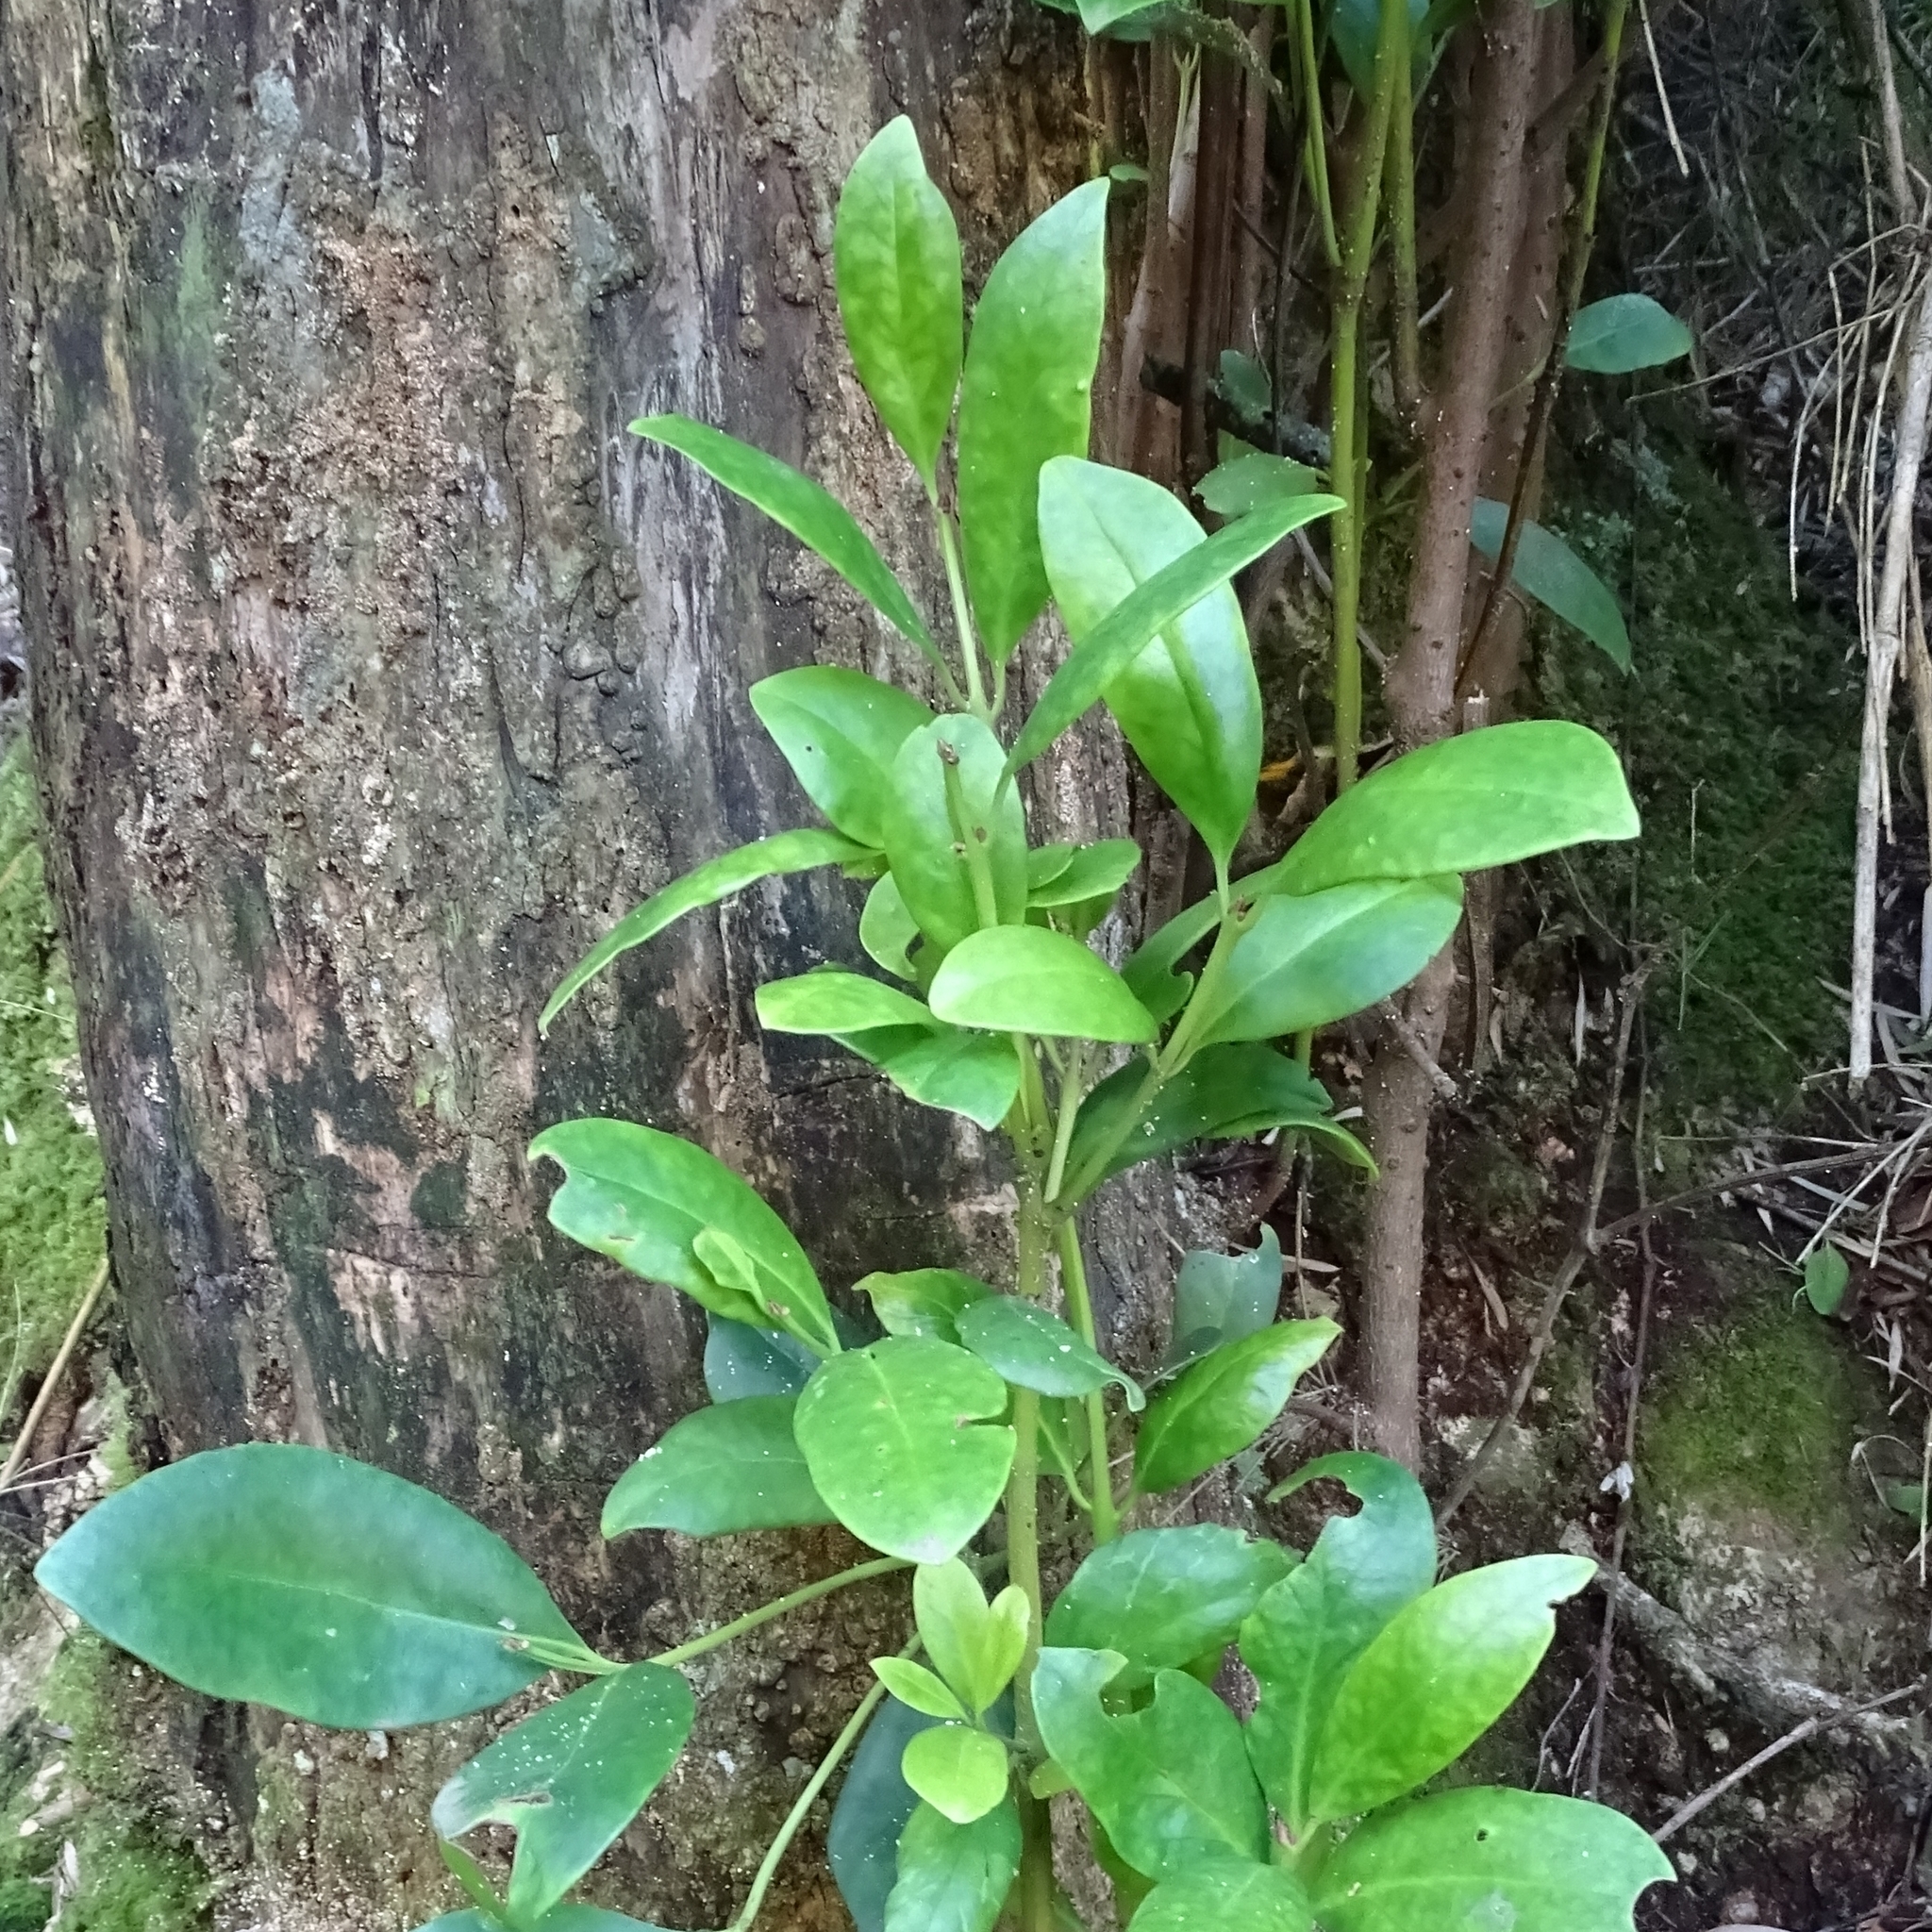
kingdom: Plantae
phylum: Tracheophyta
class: Magnoliopsida
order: Laurales
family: Gomortegaceae
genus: Gomortega
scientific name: Gomortega keule
